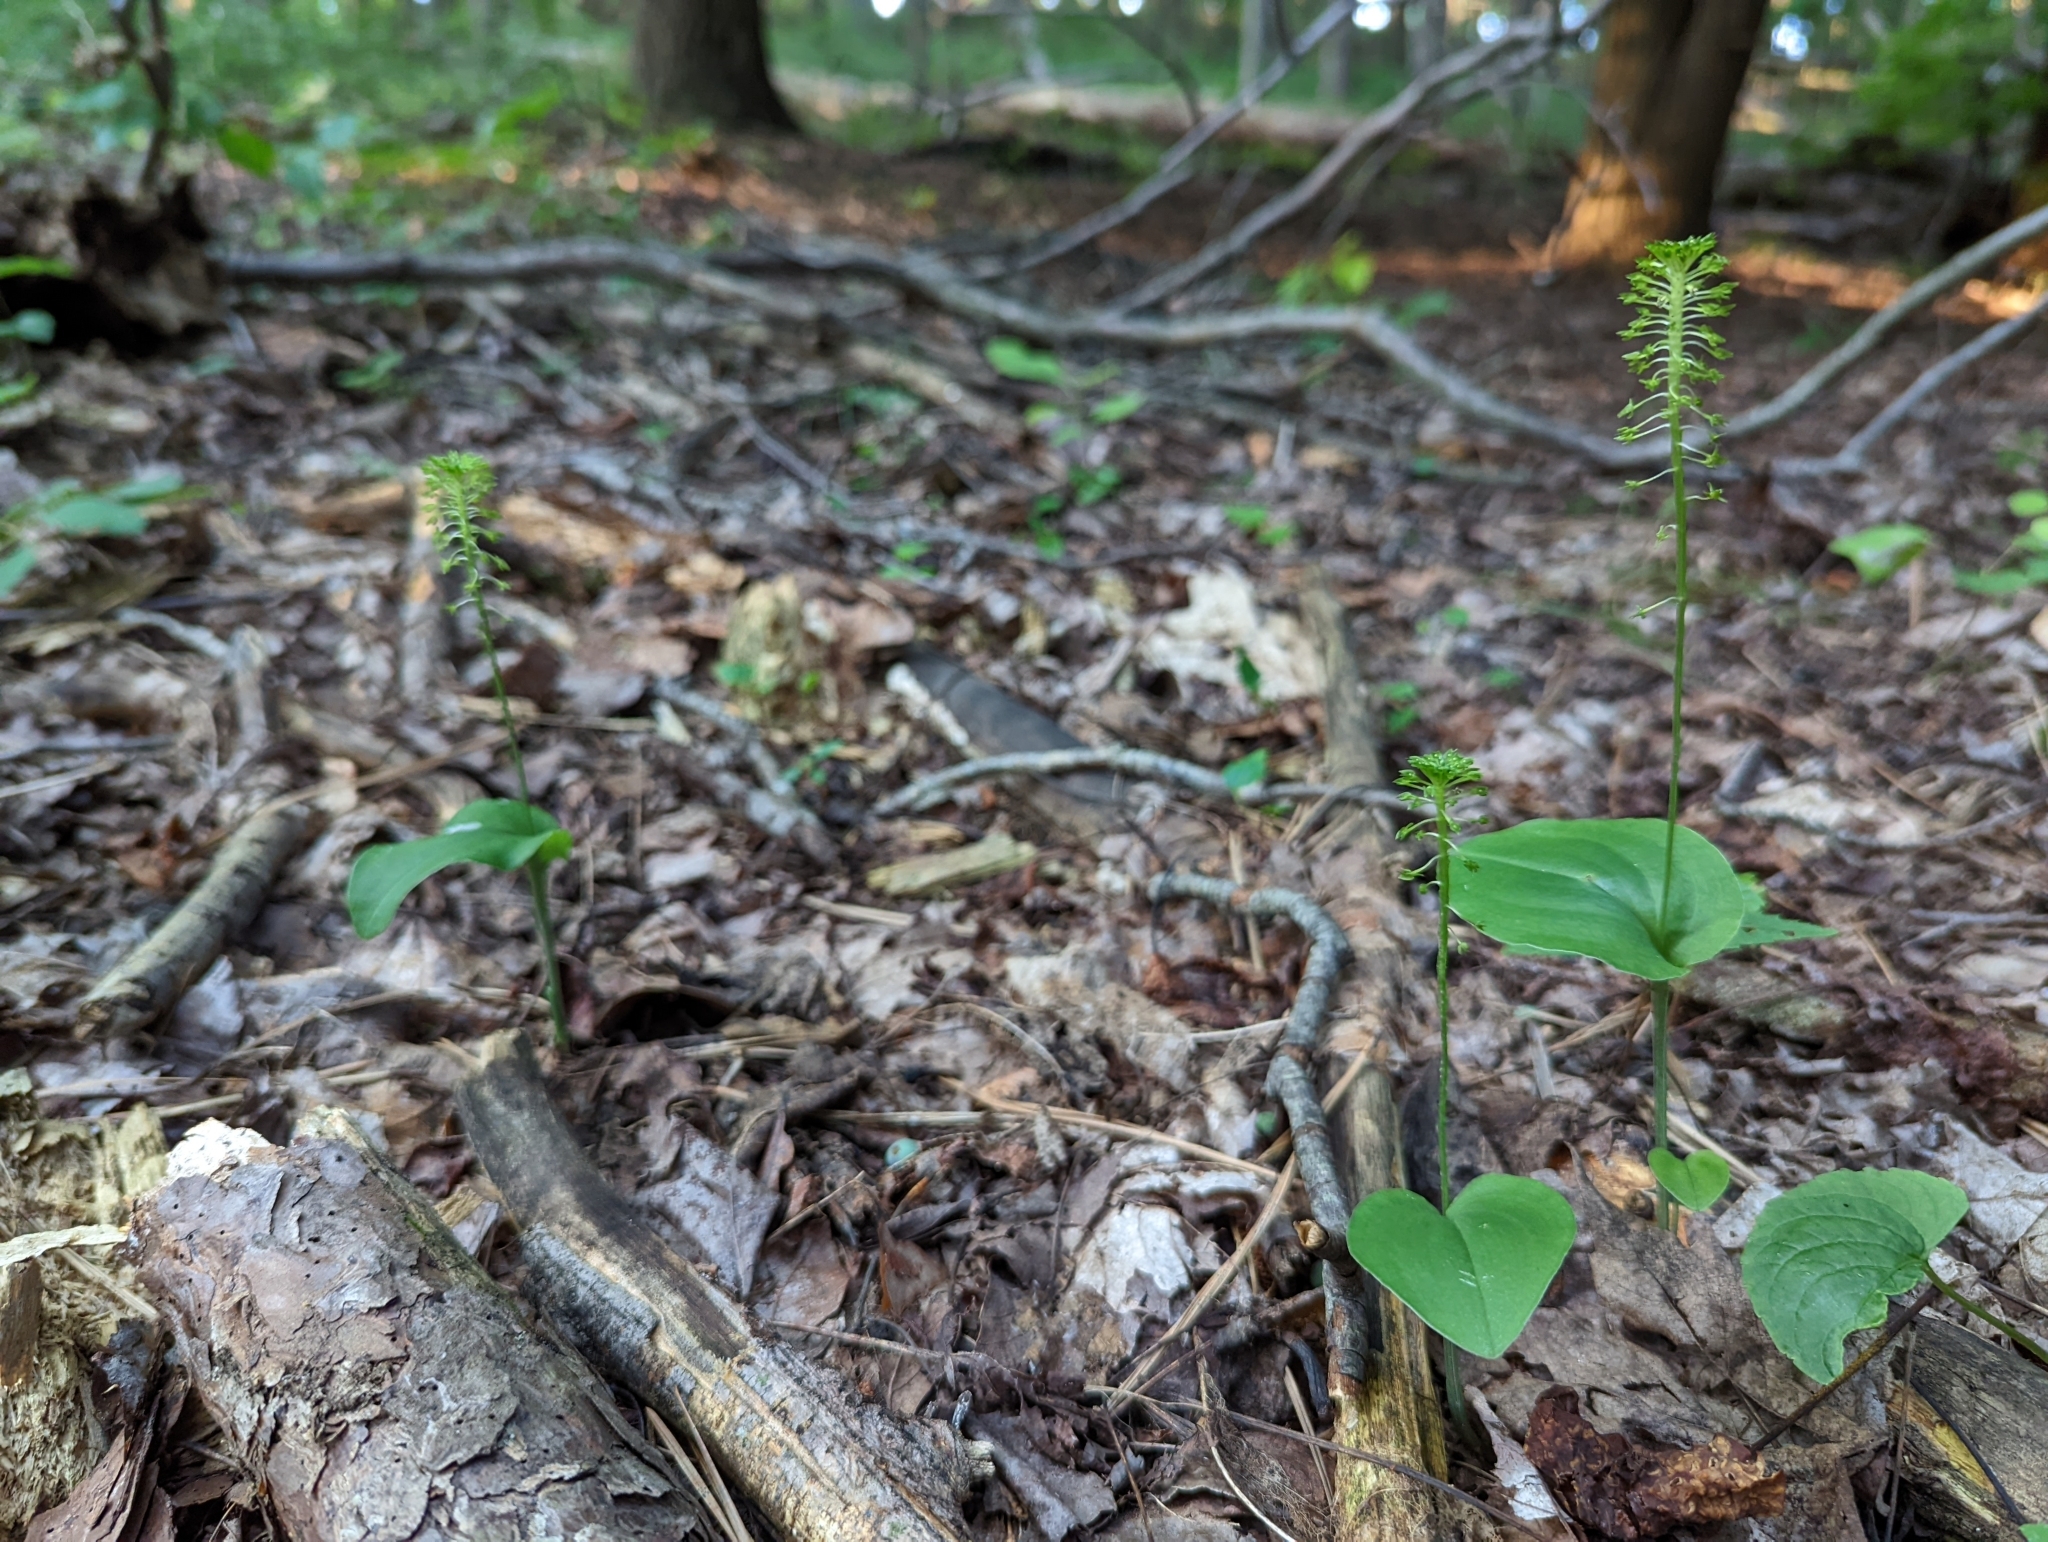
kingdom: Plantae
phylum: Tracheophyta
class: Liliopsida
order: Asparagales
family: Orchidaceae
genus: Malaxis
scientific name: Malaxis unifolia
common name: Green adder's-mouth
